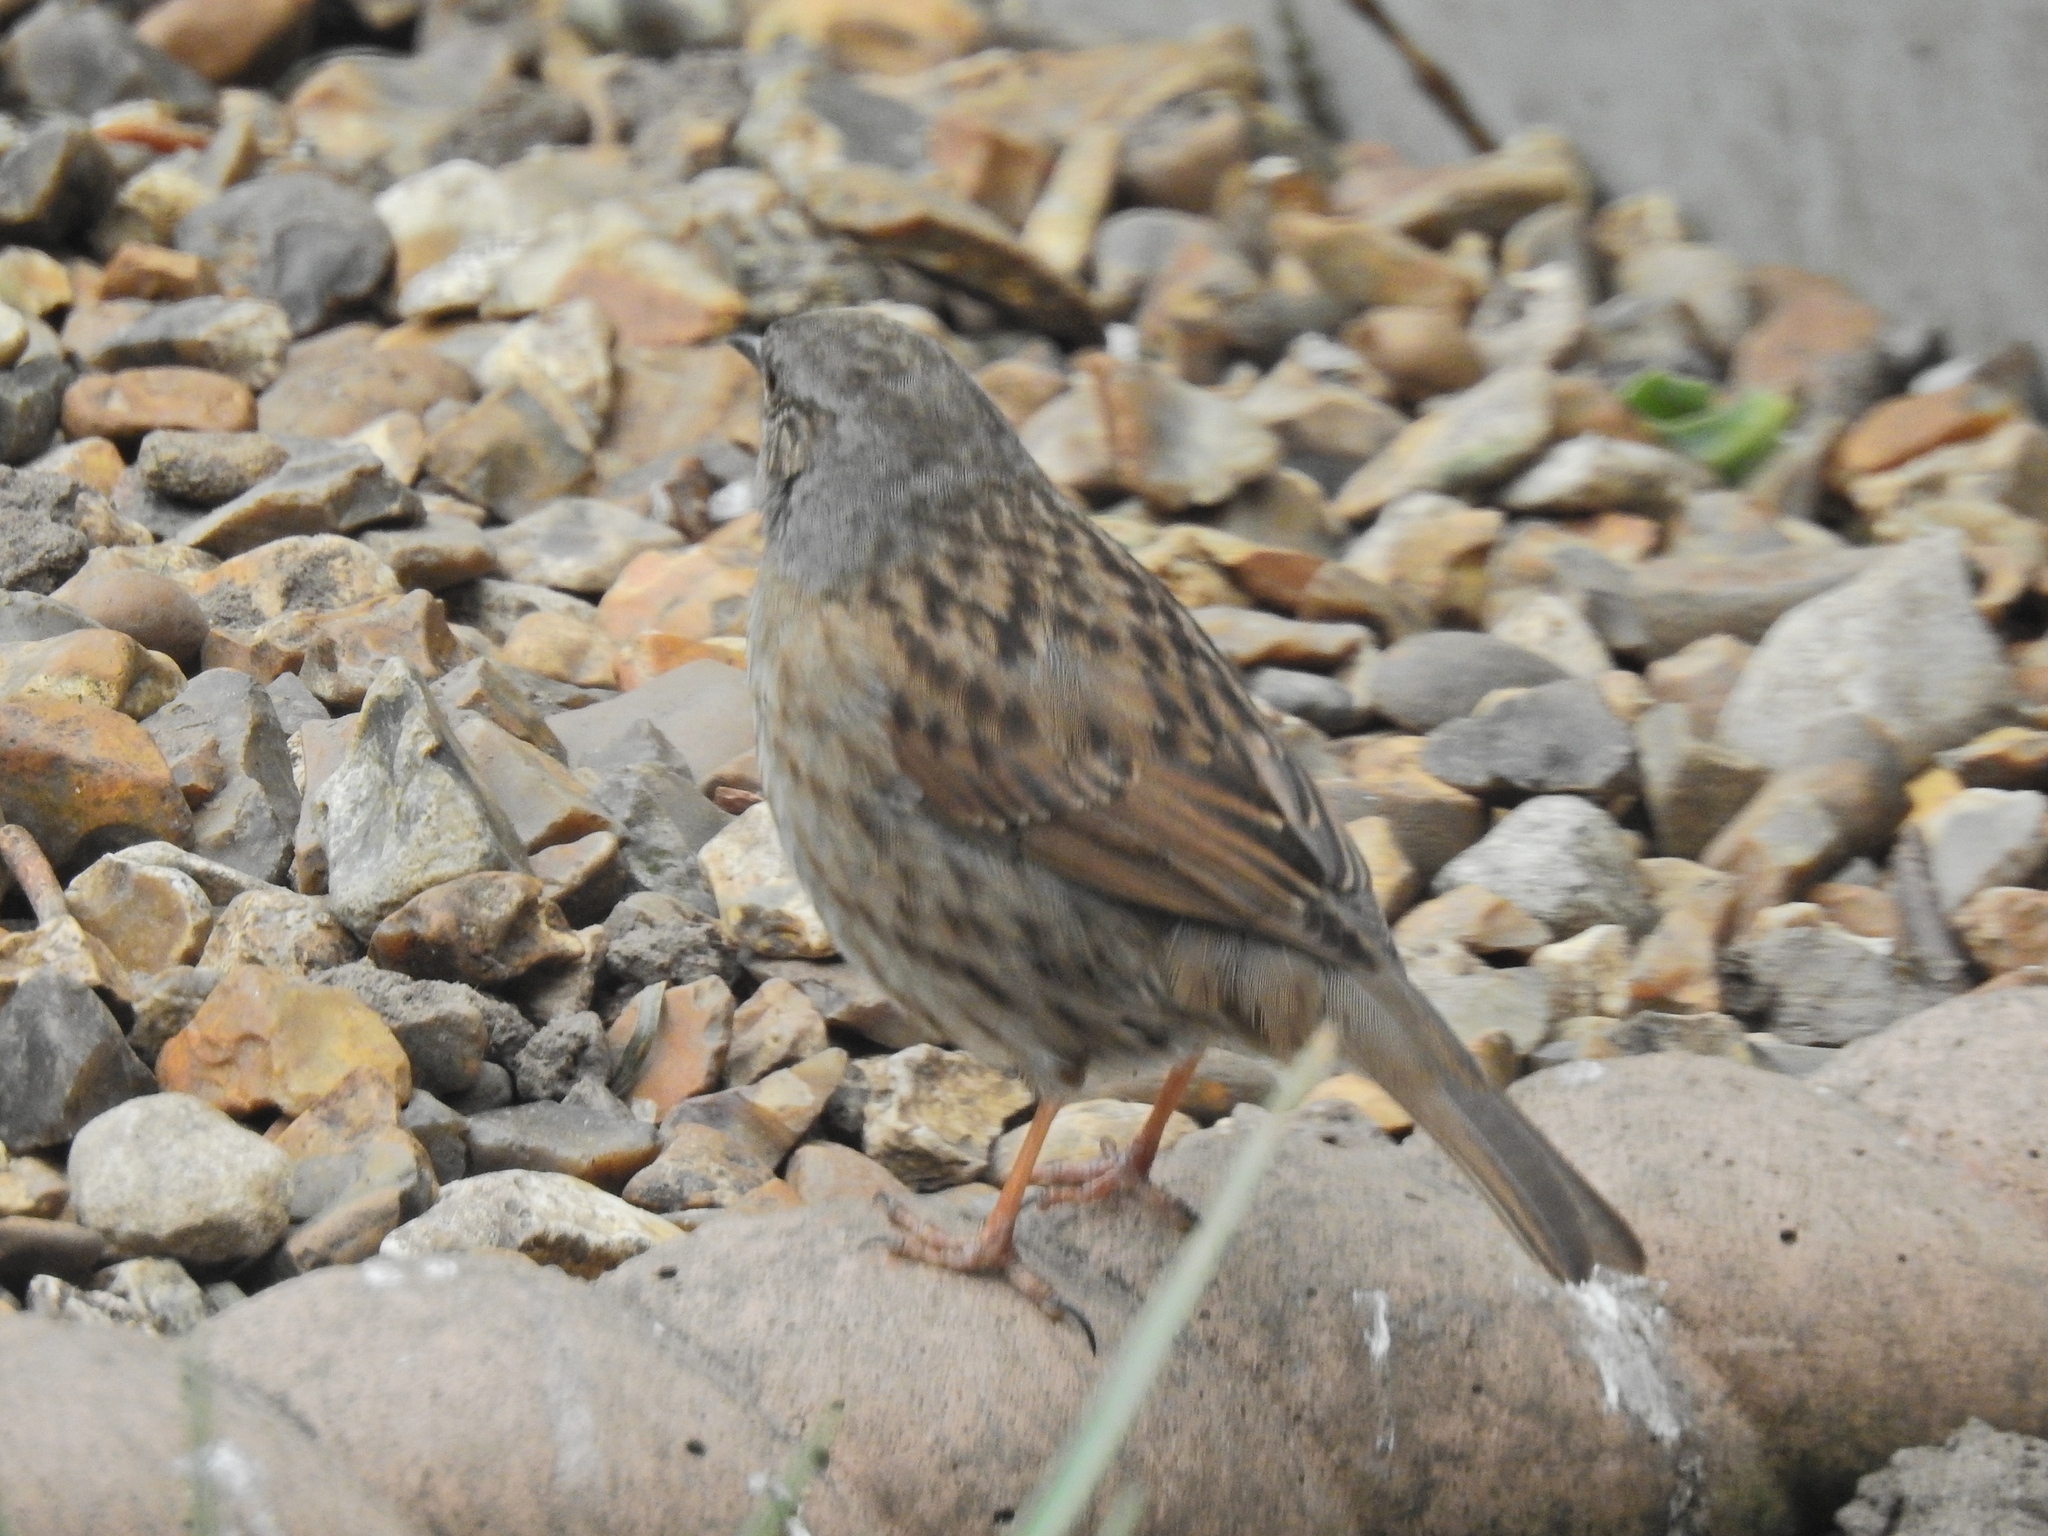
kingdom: Animalia
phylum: Chordata
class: Aves
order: Passeriformes
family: Prunellidae
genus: Prunella
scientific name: Prunella modularis
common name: Dunnock
